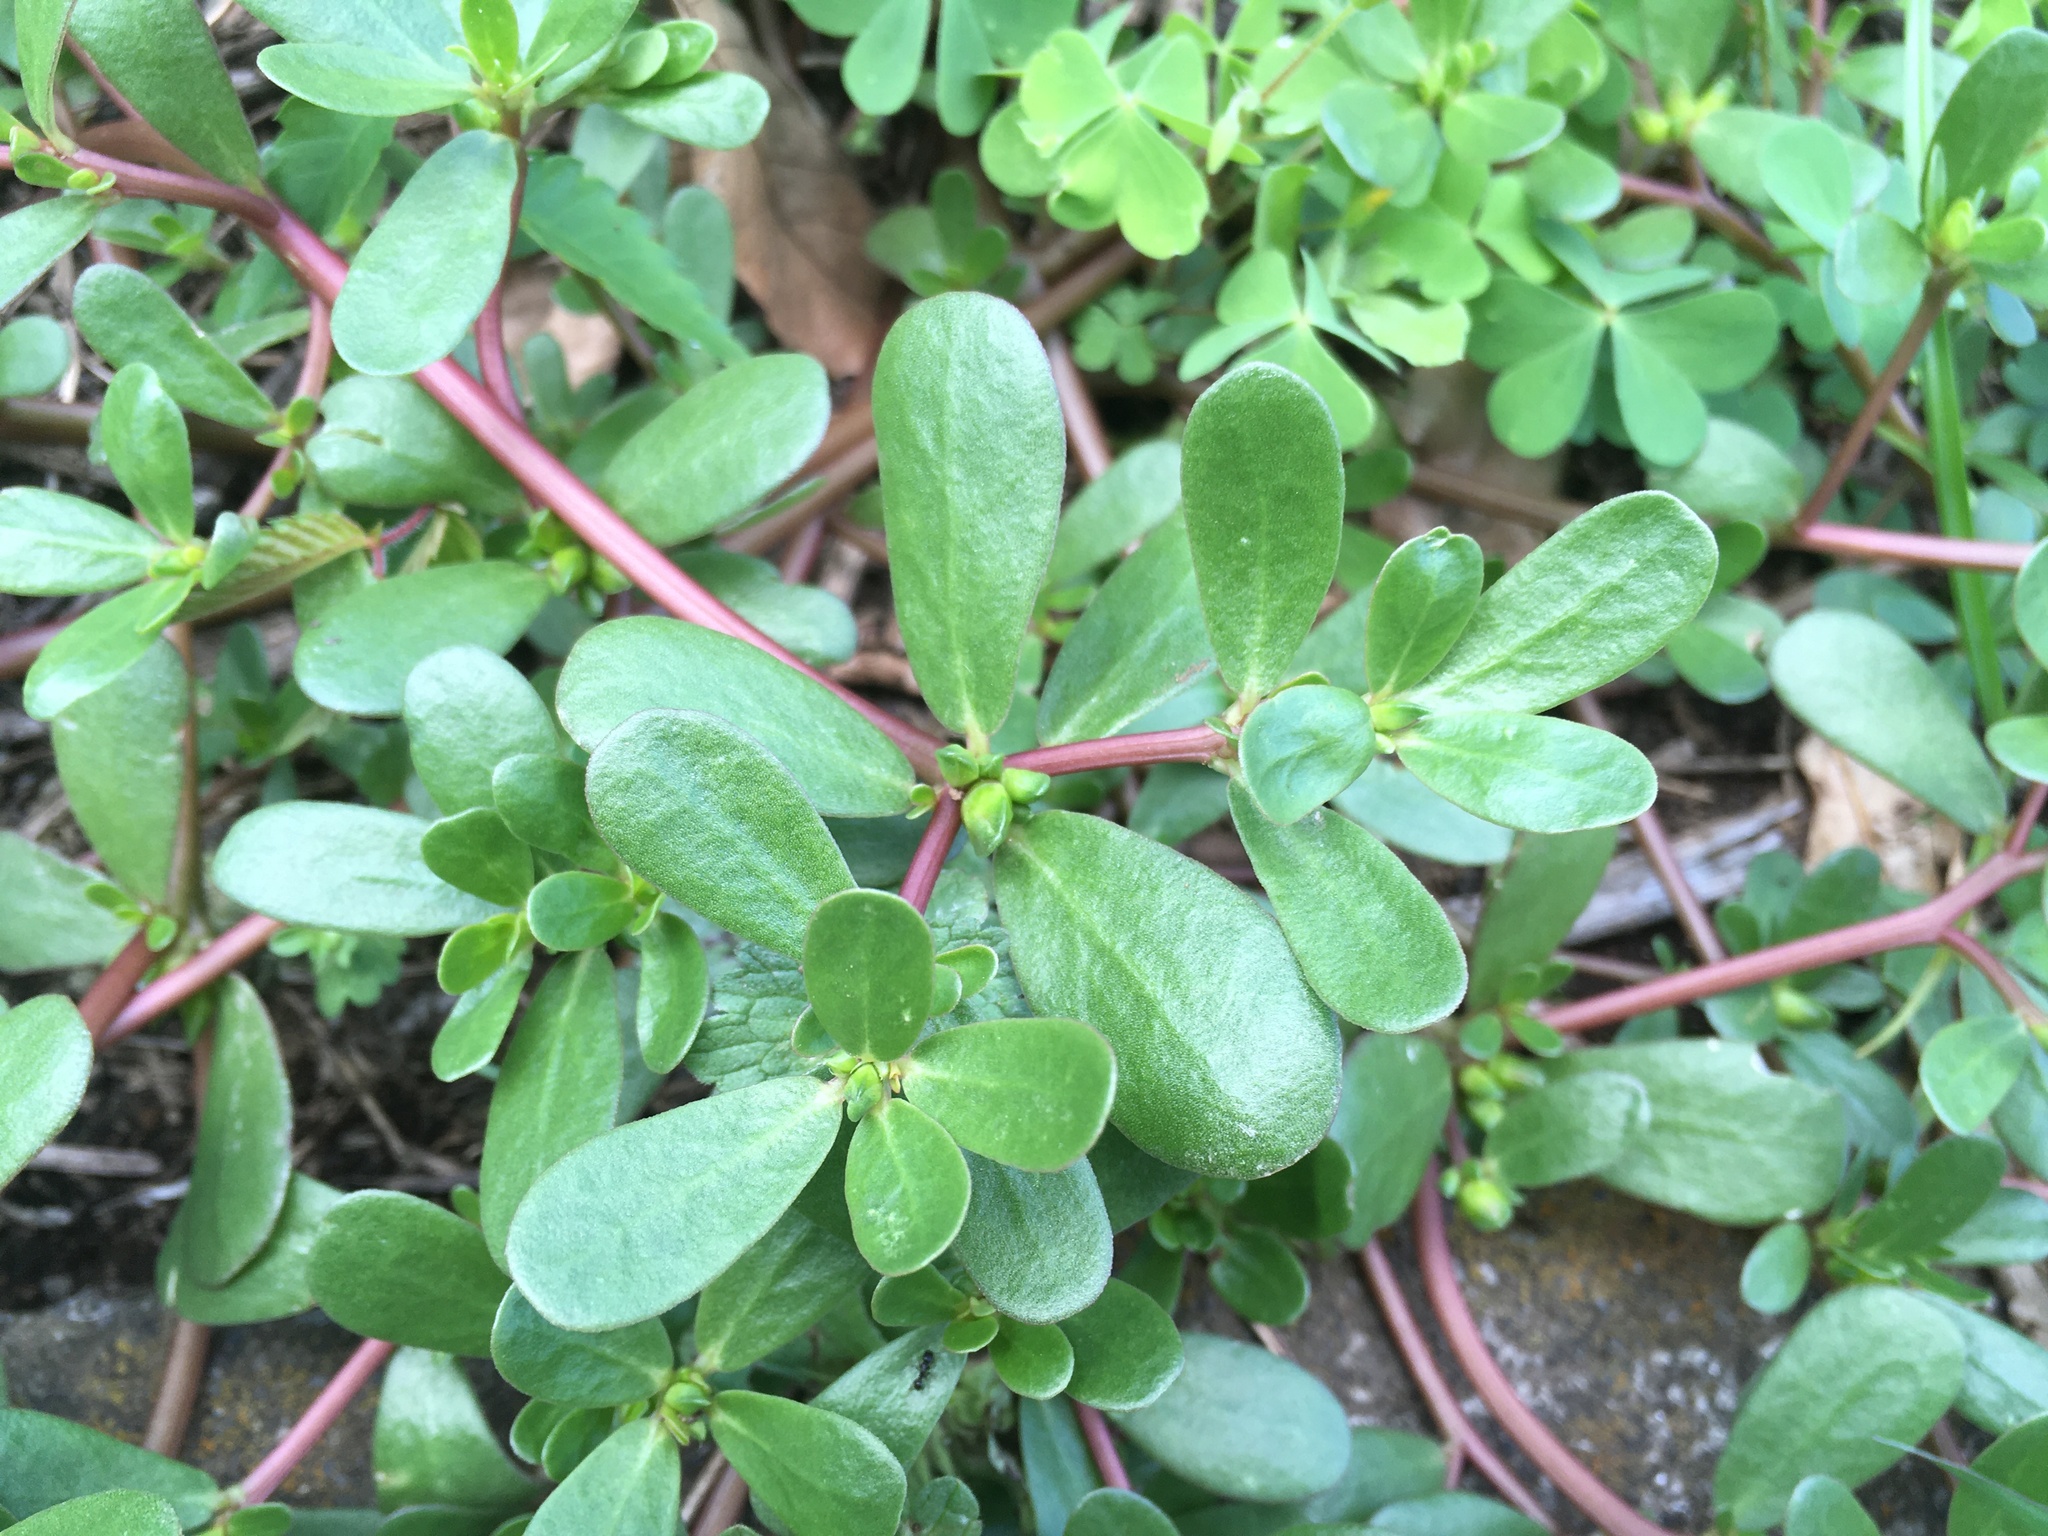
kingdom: Plantae
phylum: Tracheophyta
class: Magnoliopsida
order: Caryophyllales
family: Portulacaceae
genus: Portulaca
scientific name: Portulaca oleracea
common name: Common purslane
